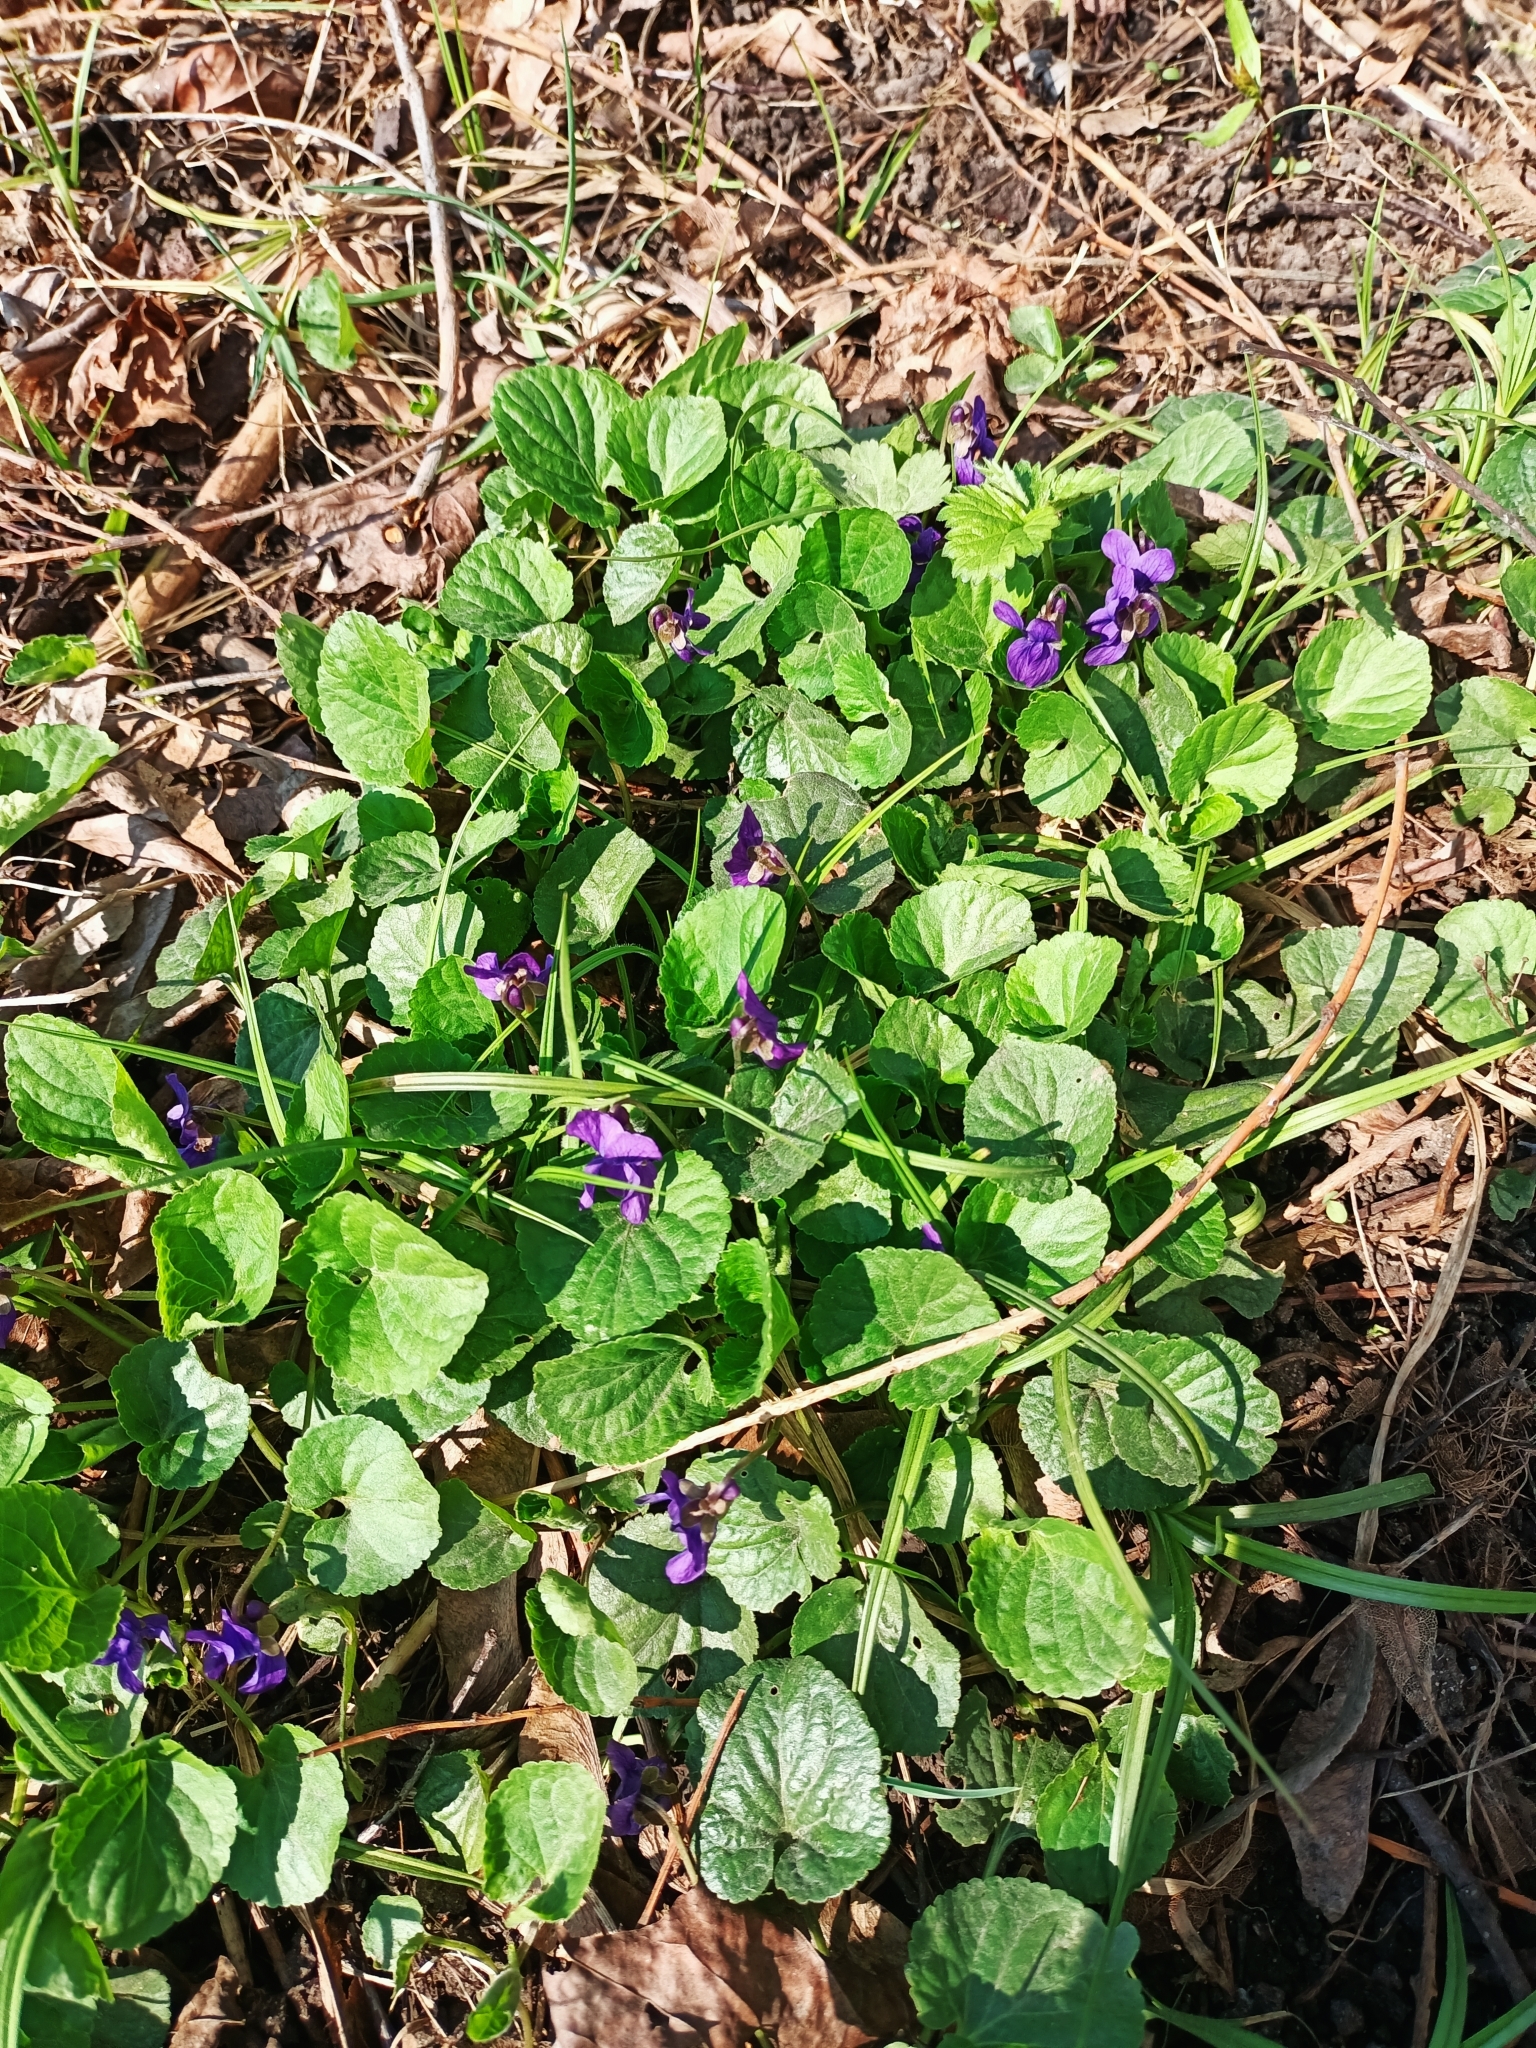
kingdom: Plantae
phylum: Tracheophyta
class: Magnoliopsida
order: Malpighiales
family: Violaceae
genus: Viola
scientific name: Viola odorata
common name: Sweet violet
